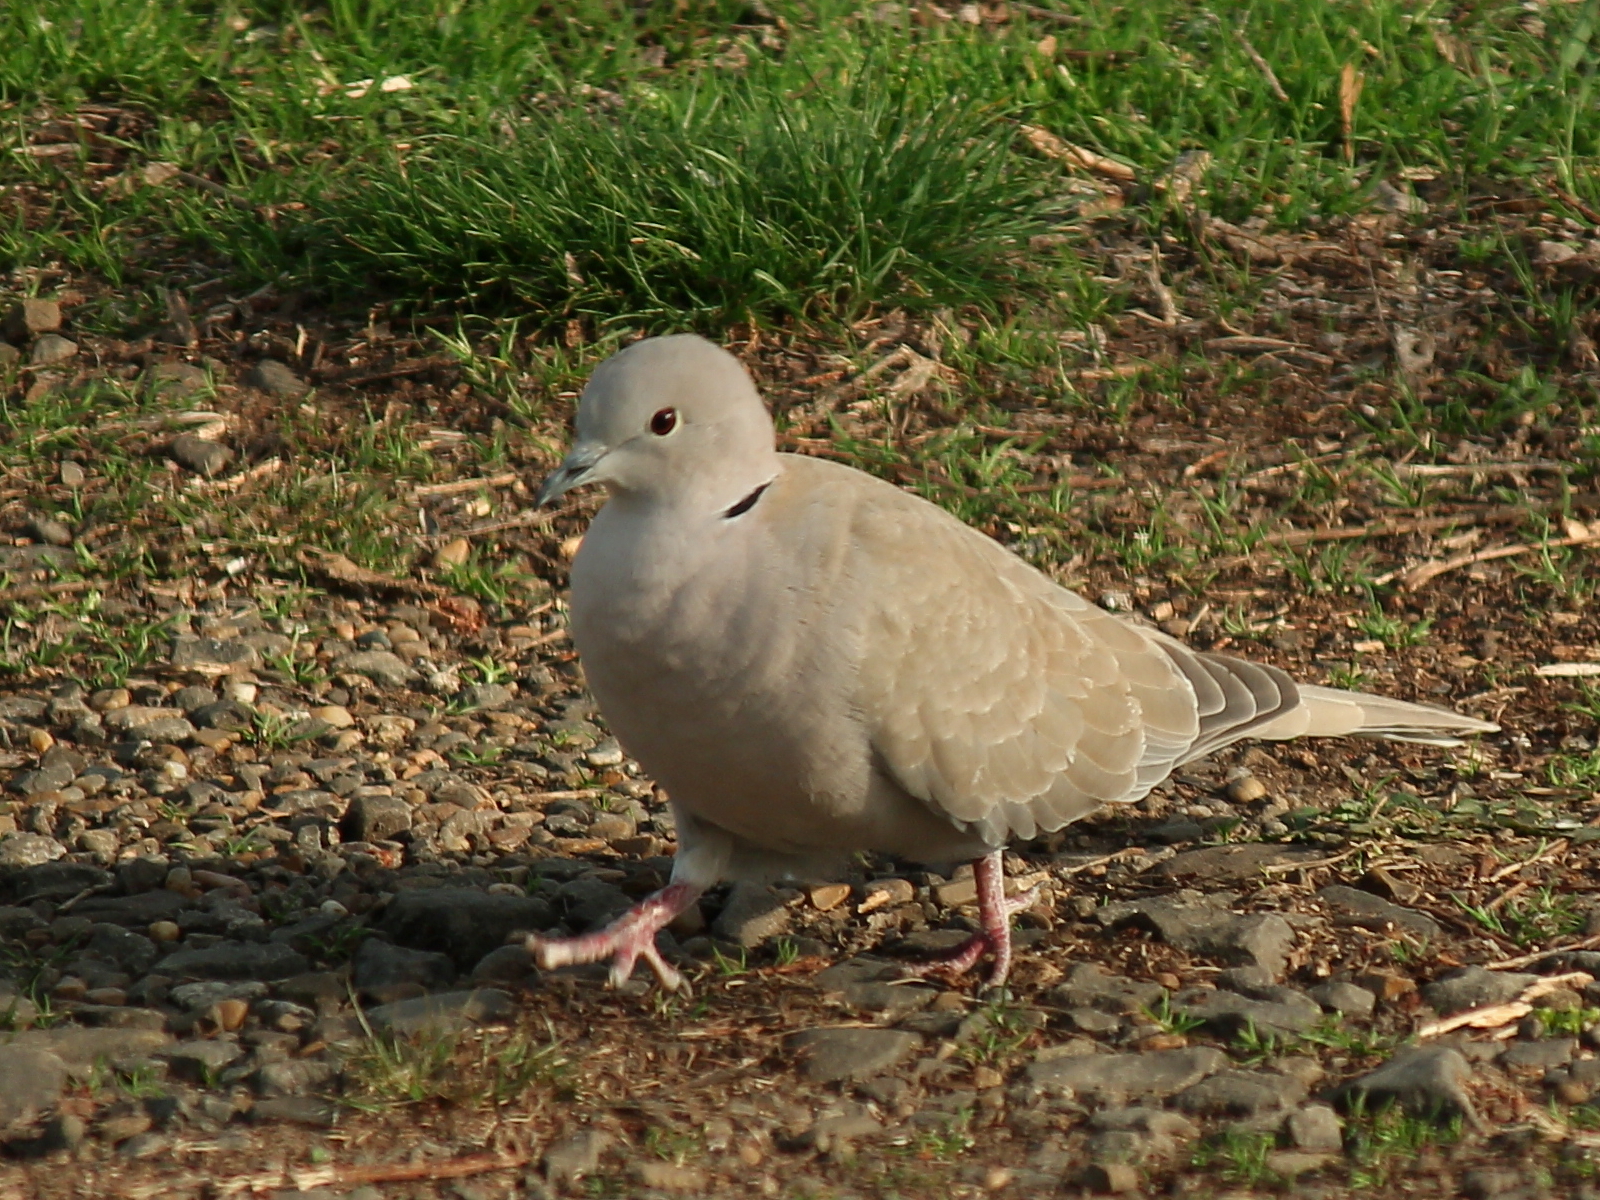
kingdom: Animalia
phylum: Chordata
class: Aves
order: Columbiformes
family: Columbidae
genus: Streptopelia
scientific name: Streptopelia decaocto
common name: Eurasian collared dove
